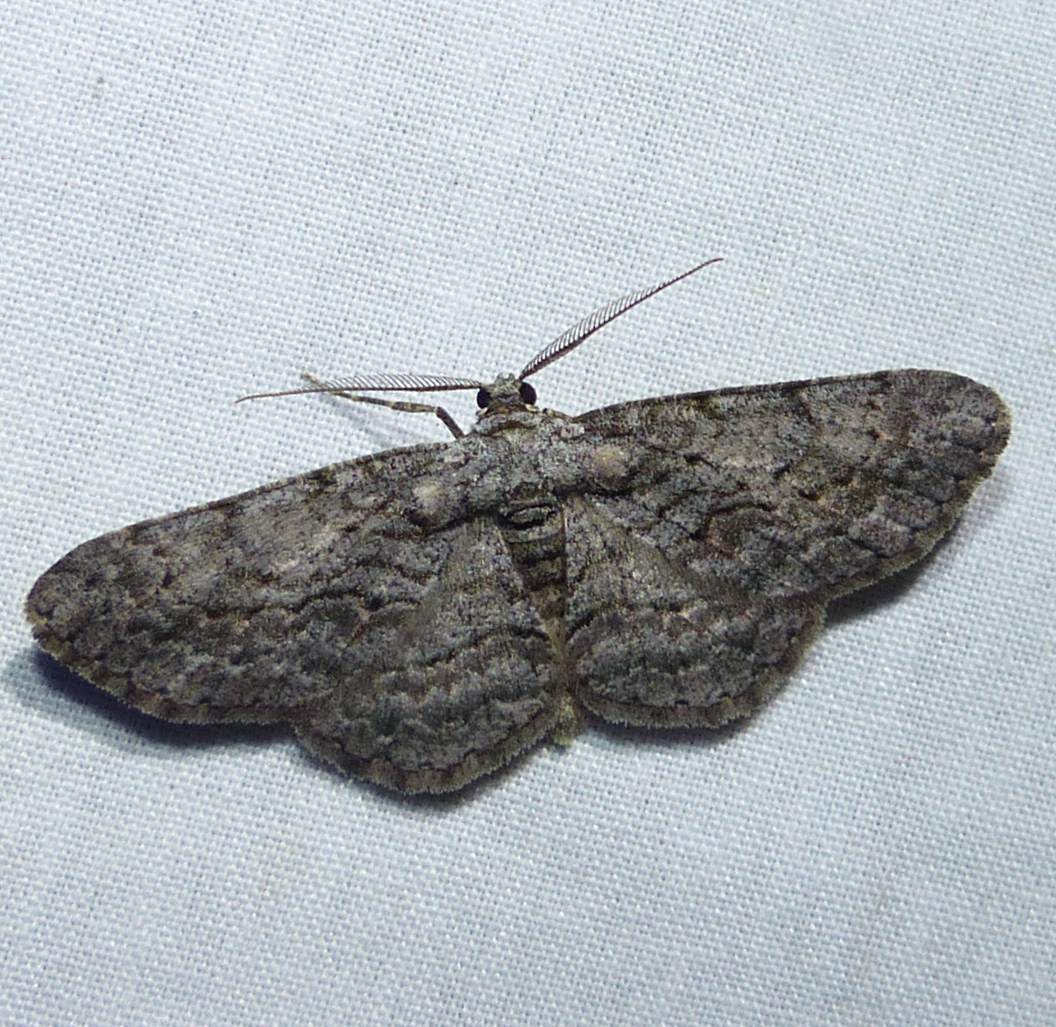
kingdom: Animalia
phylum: Arthropoda
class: Insecta
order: Lepidoptera
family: Geometridae
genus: Anavitrinella
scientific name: Anavitrinella pampinaria
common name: Common gray
